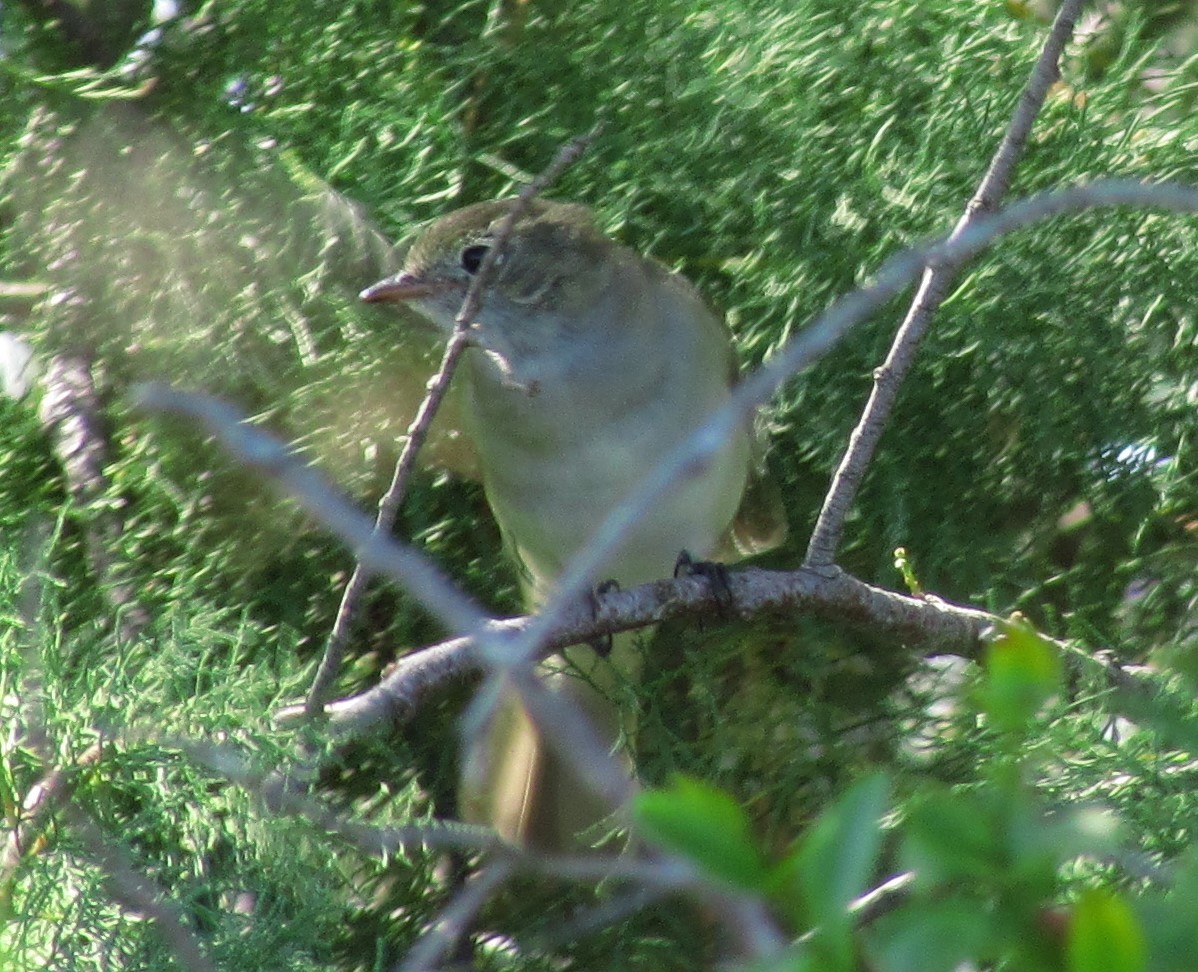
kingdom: Animalia
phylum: Chordata
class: Aves
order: Passeriformes
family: Tyrannidae
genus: Elaenia
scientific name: Elaenia parvirostris
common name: Small-billed elaenia
